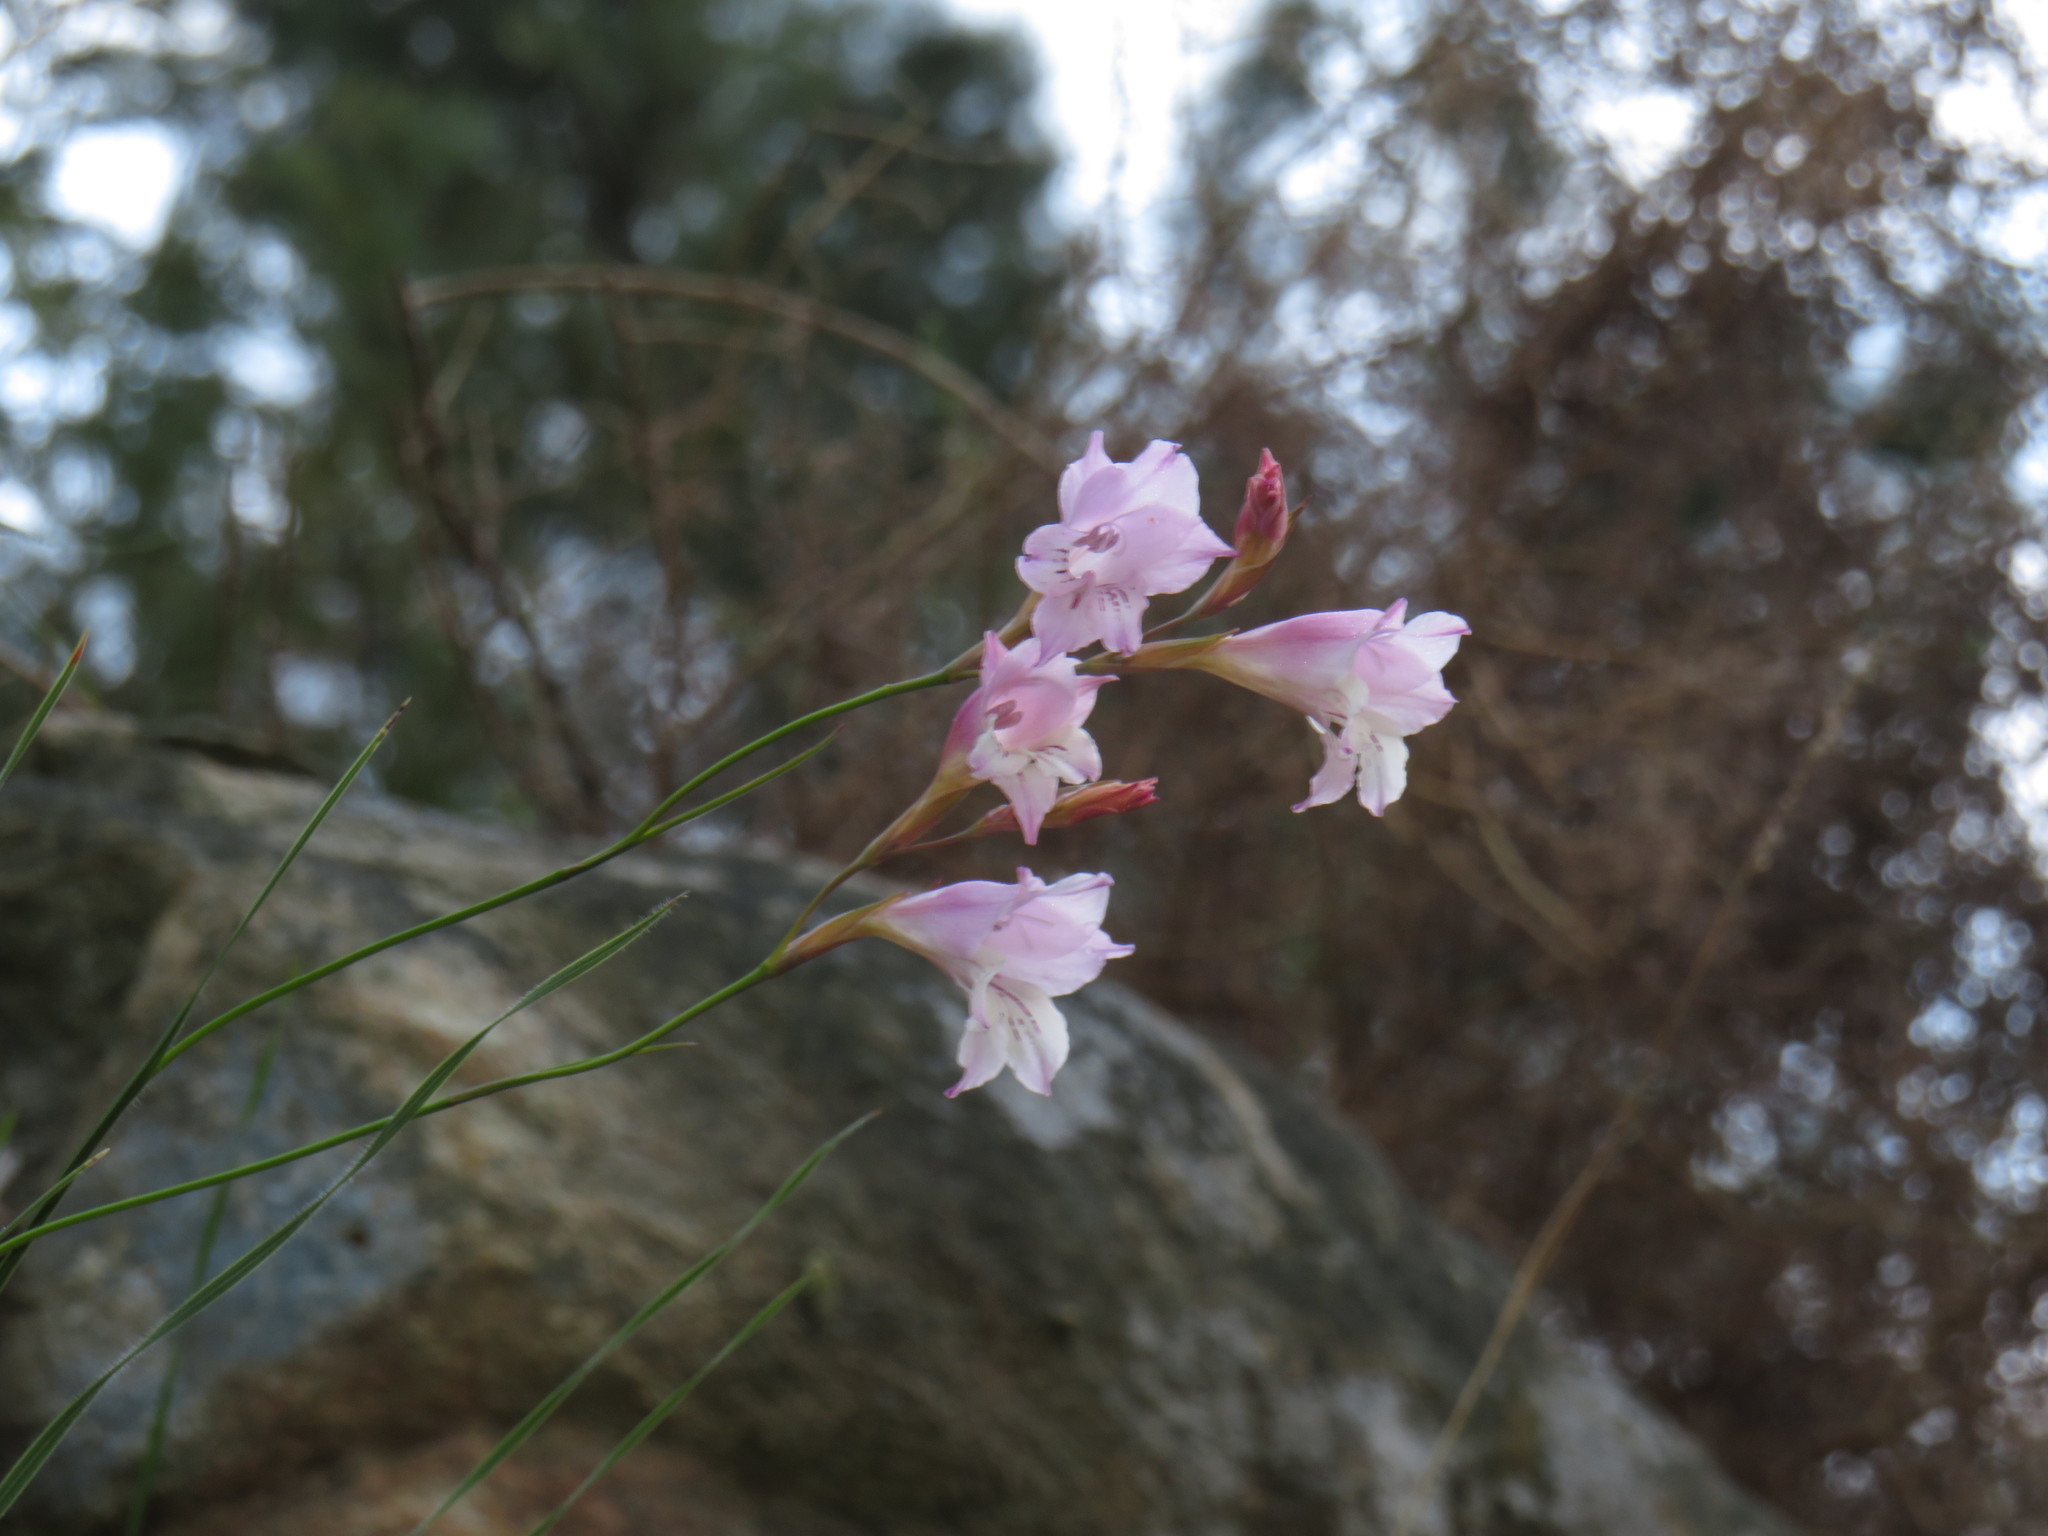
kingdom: Plantae
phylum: Tracheophyta
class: Liliopsida
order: Asparagales
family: Iridaceae
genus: Gladiolus
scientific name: Gladiolus hirsutus
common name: Small pink afrikaner
